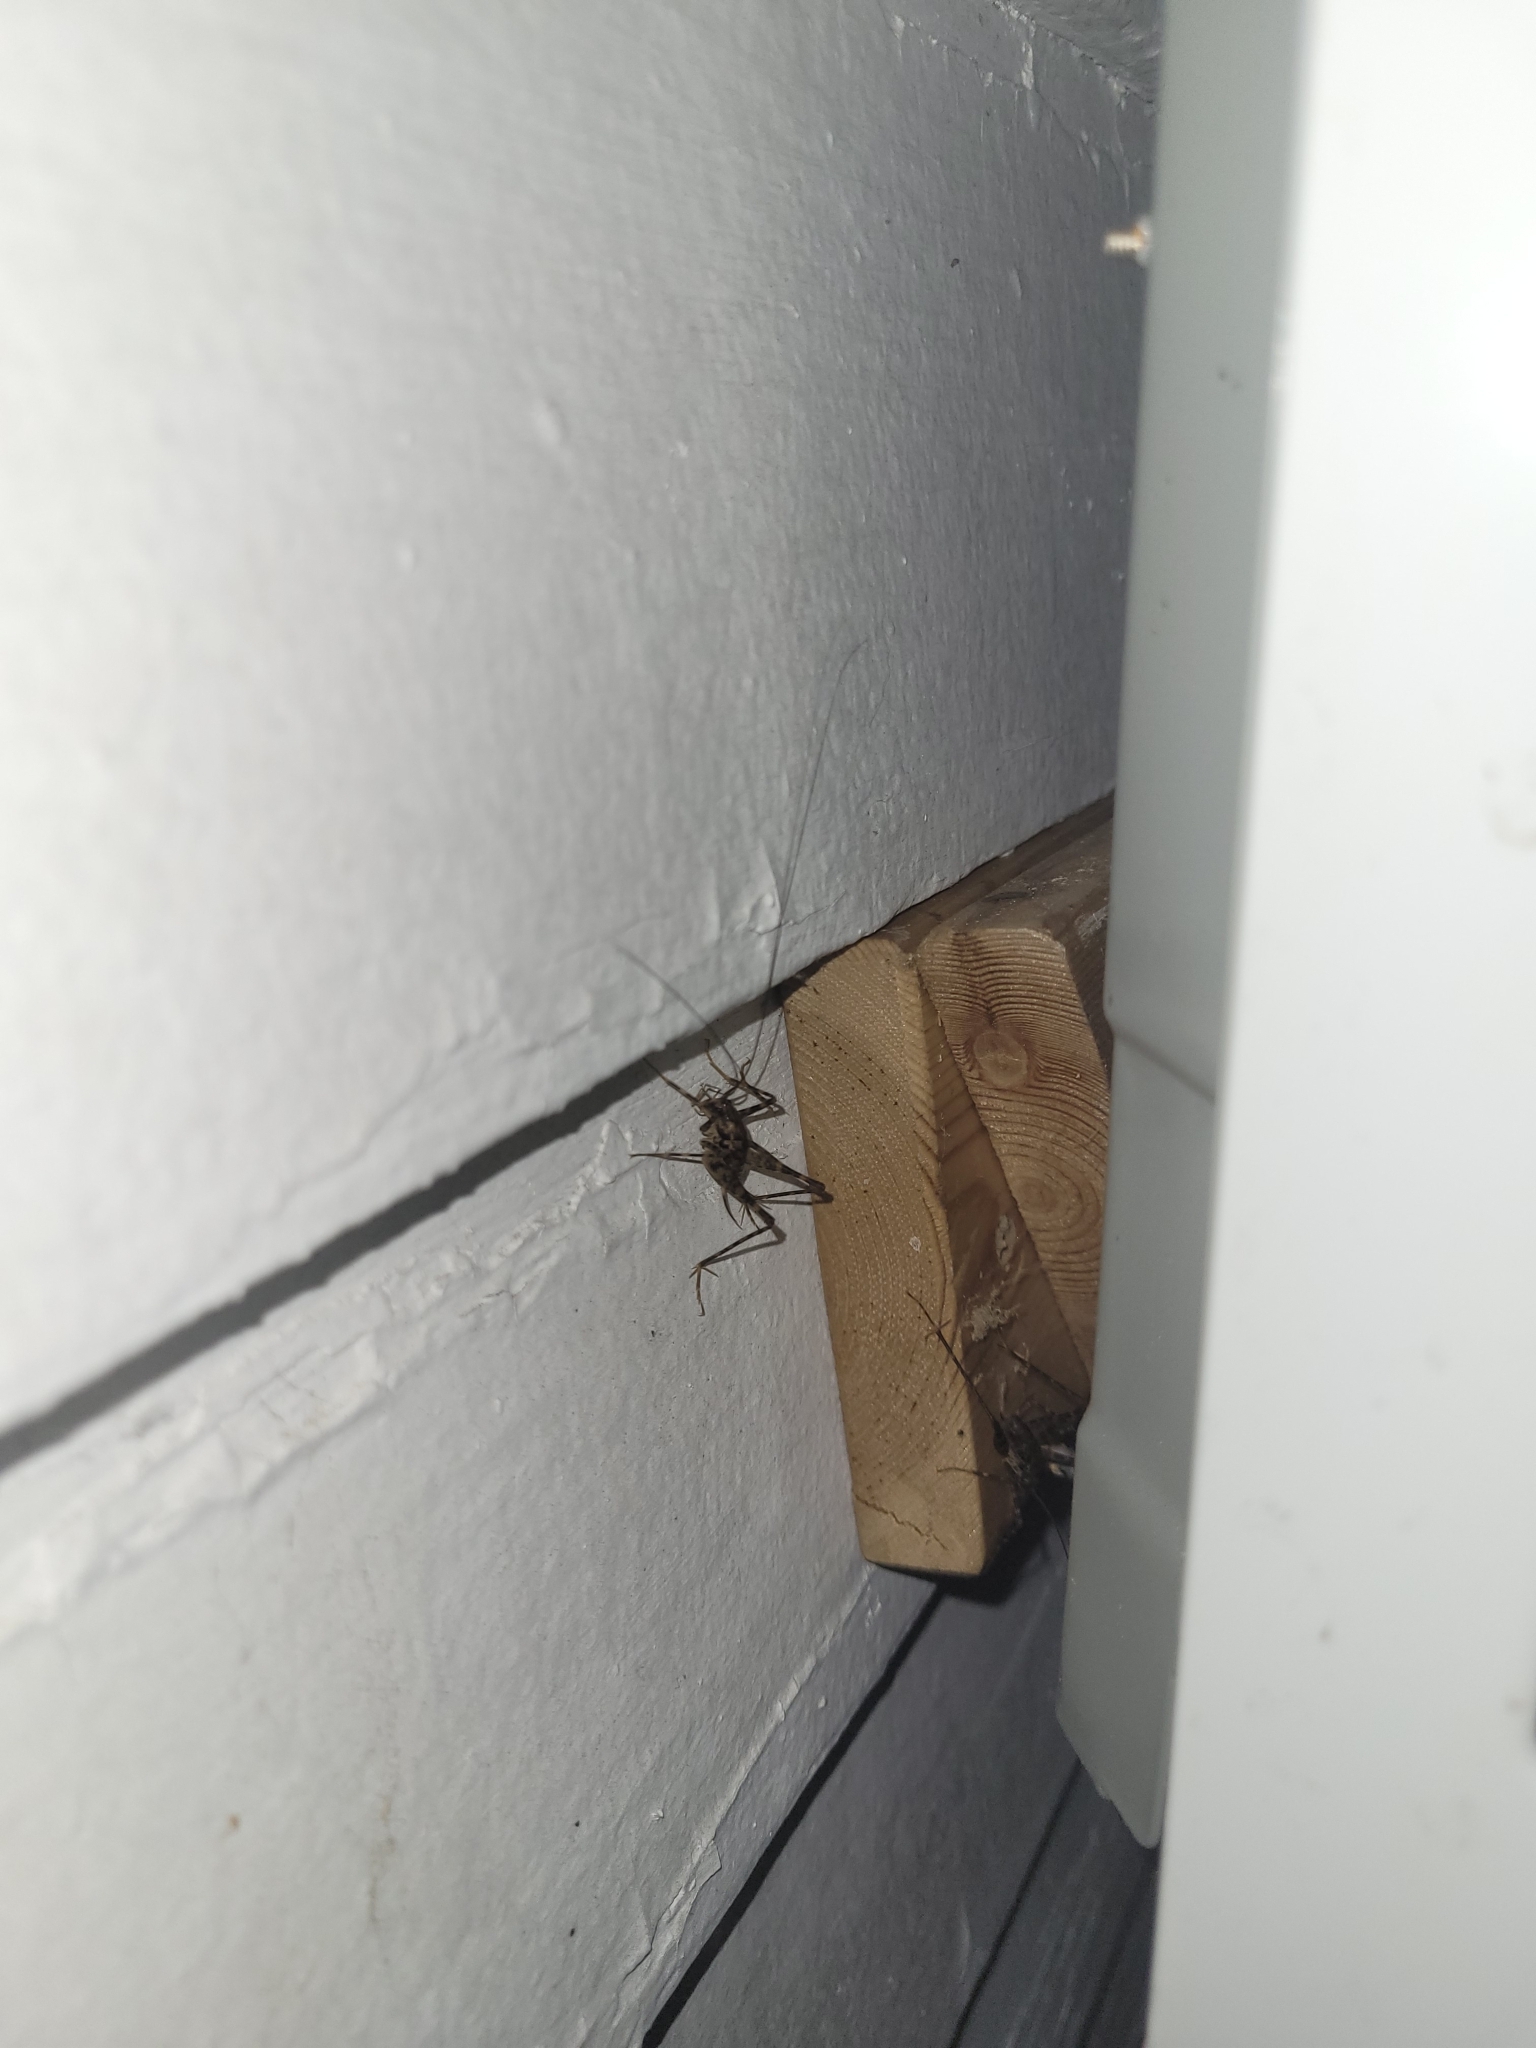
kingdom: Animalia
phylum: Arthropoda
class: Insecta
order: Orthoptera
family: Rhaphidophoridae
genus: Diestrammena
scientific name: Diestrammena japanica
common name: Japanese camel cricket
